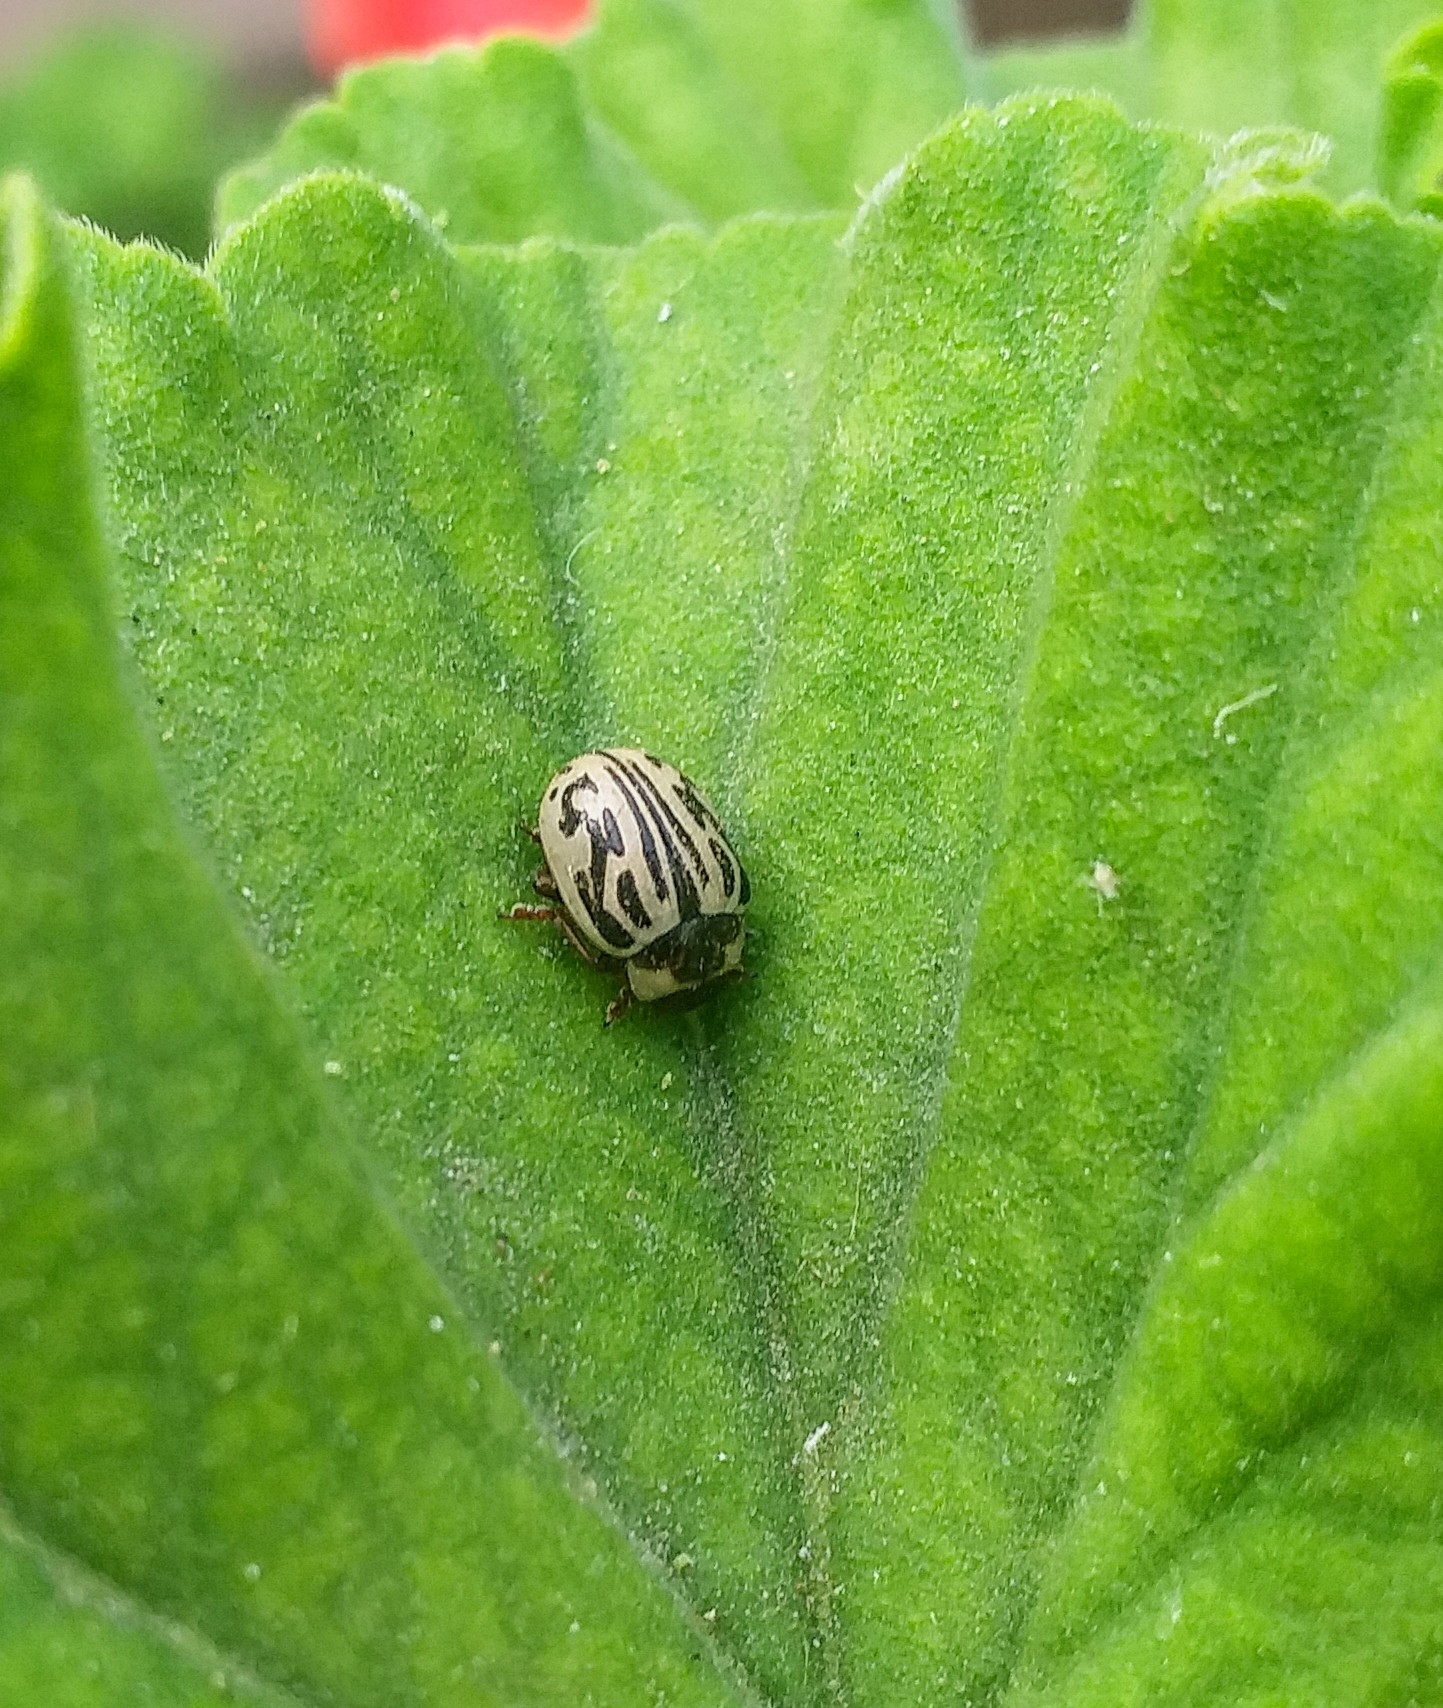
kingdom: Animalia
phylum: Arthropoda
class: Insecta
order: Coleoptera
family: Chrysomelidae
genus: Calligrapha
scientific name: Calligrapha
